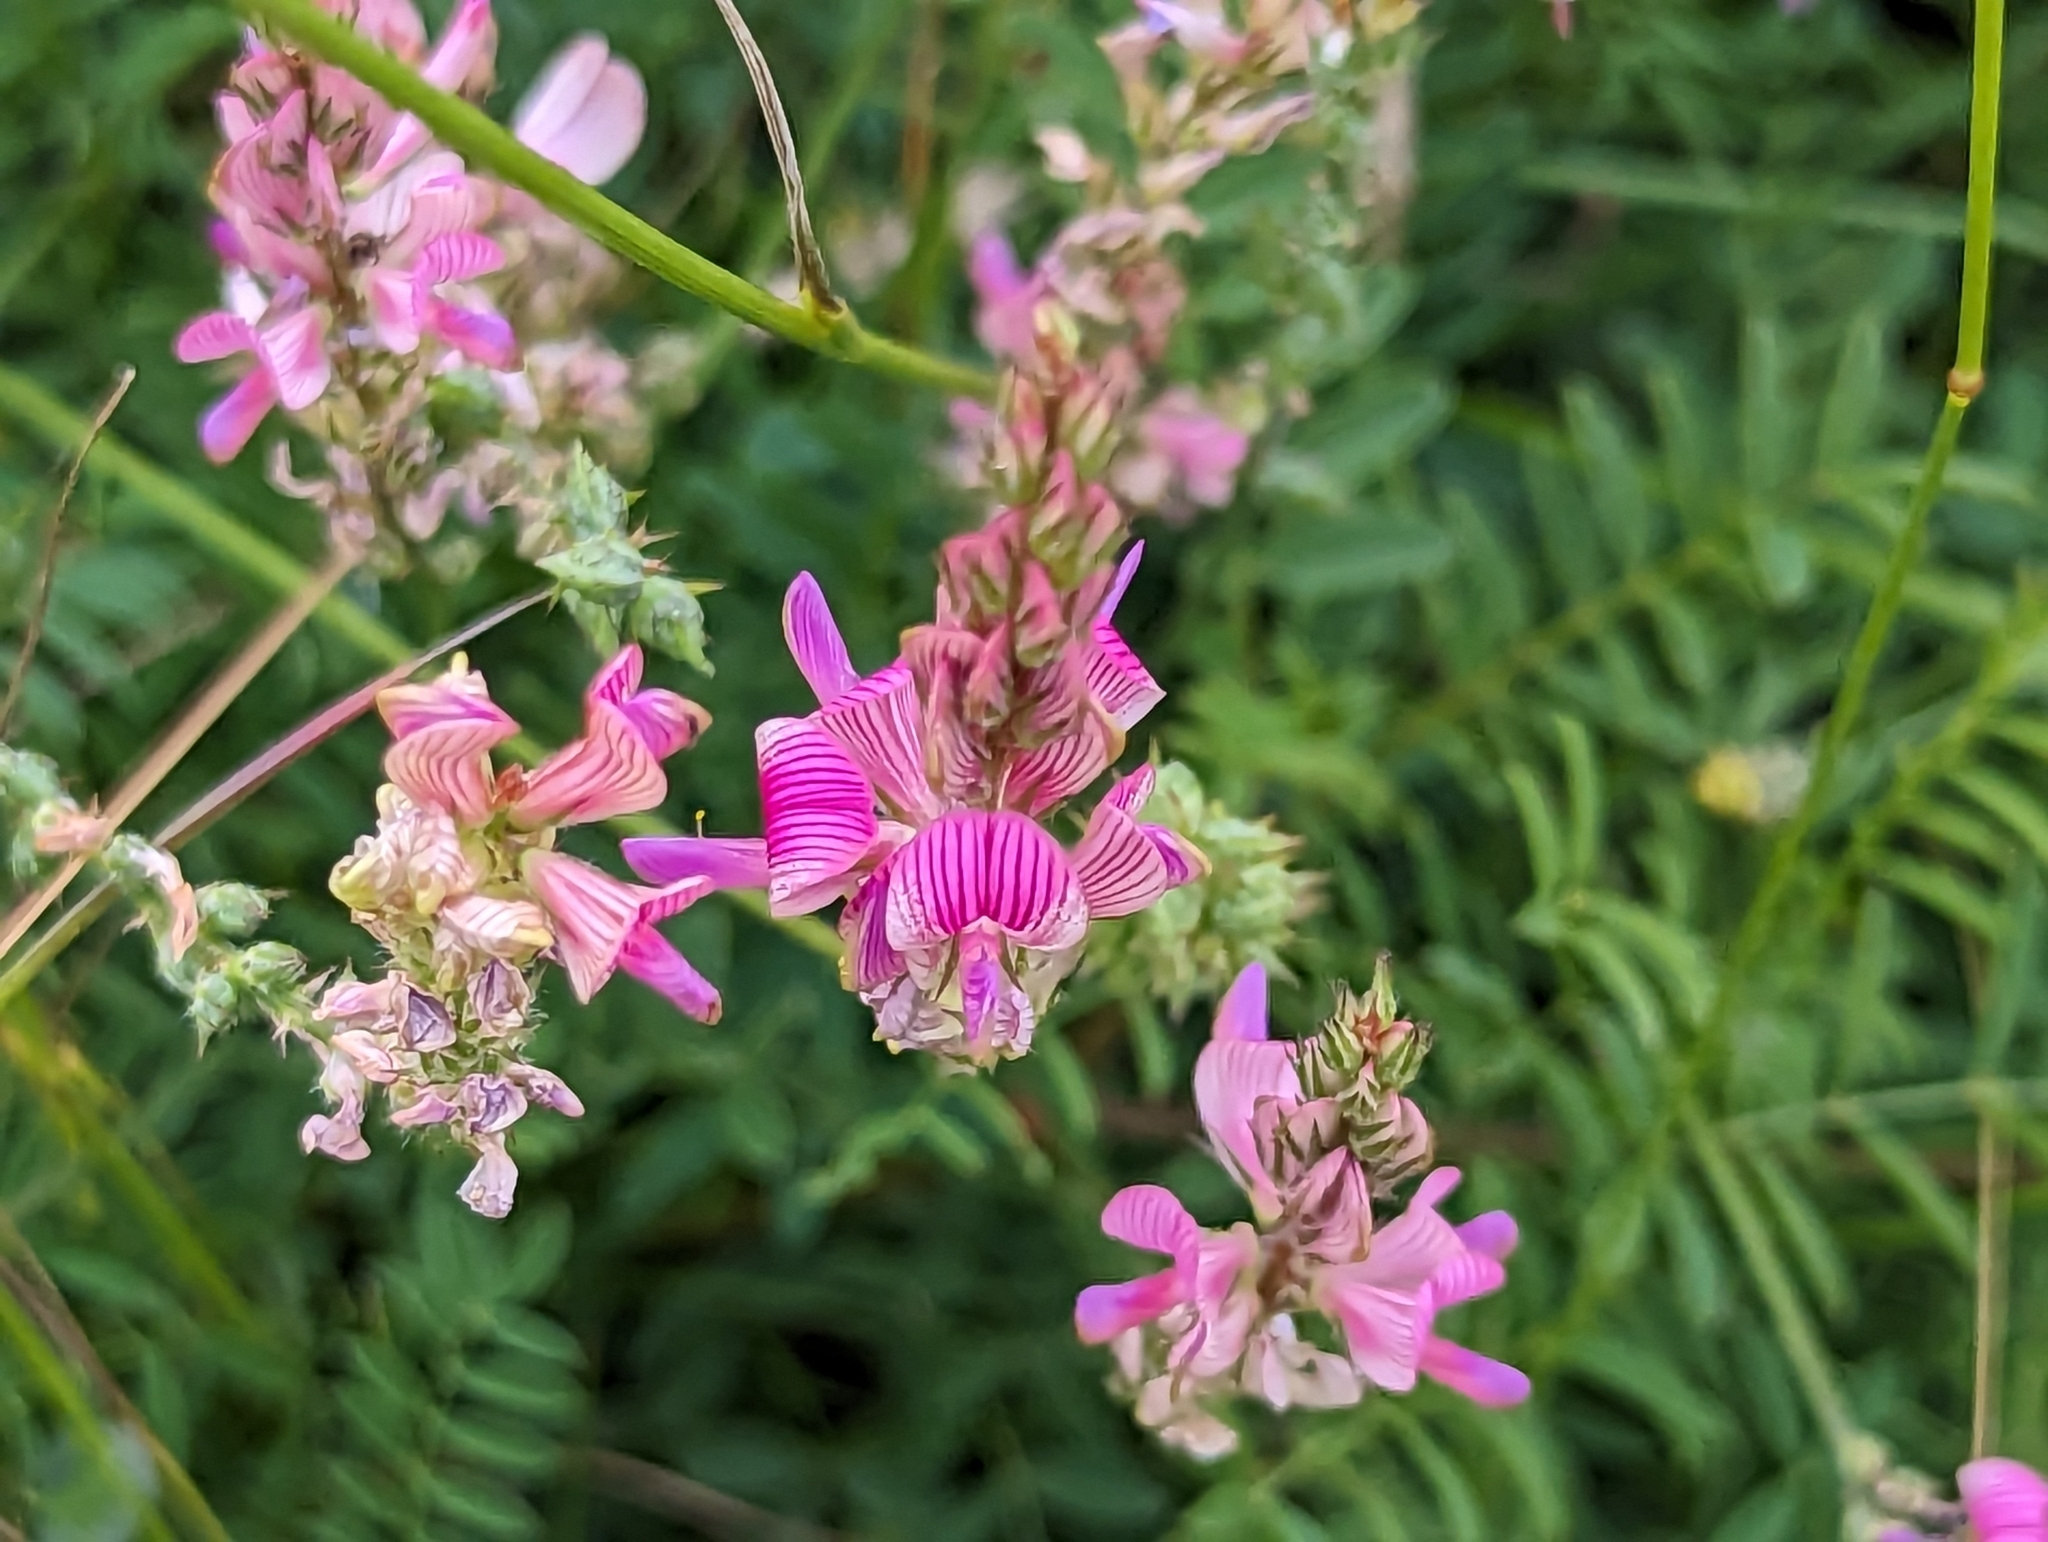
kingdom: Plantae
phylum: Tracheophyta
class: Magnoliopsida
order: Fabales
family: Fabaceae
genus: Onobrychis
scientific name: Onobrychis viciifolia
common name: Sainfoin
